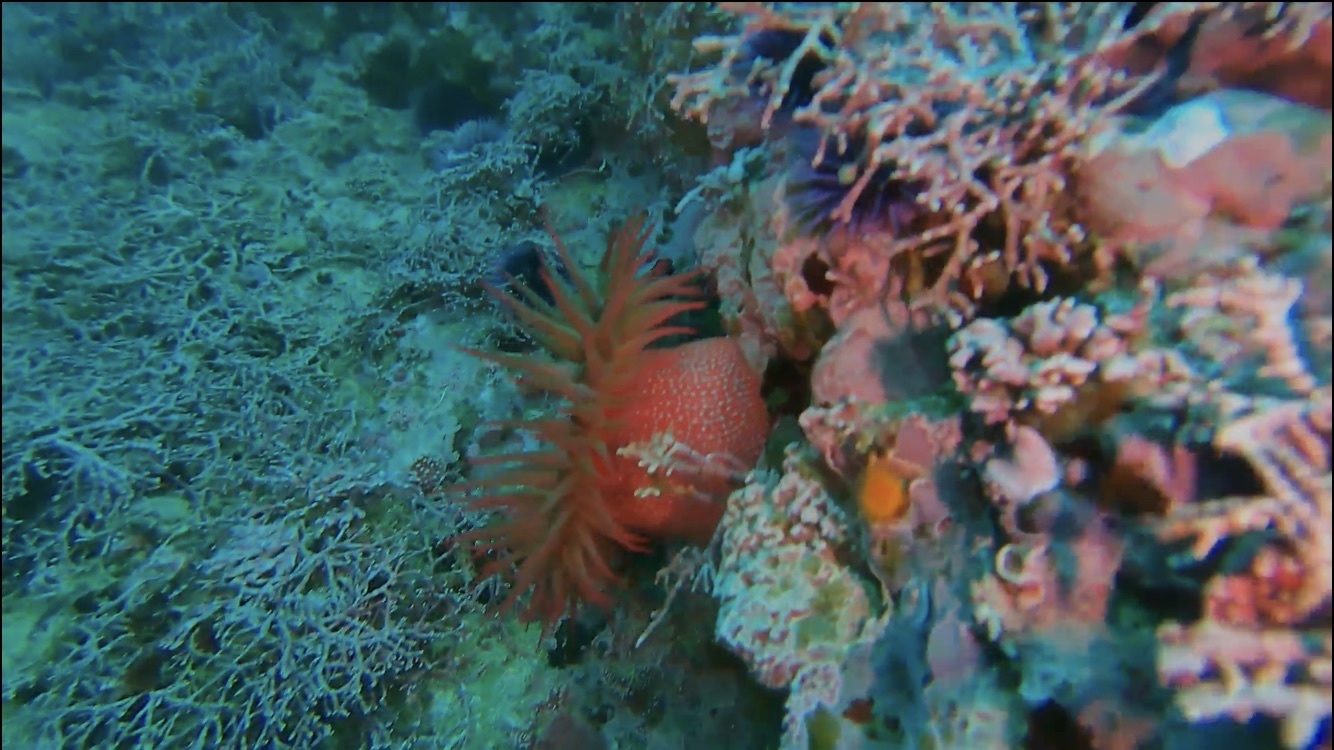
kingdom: Animalia
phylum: Cnidaria
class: Anthozoa
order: Actiniaria
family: Actiniidae
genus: Cribrinopsis
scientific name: Cribrinopsis albopunctata
